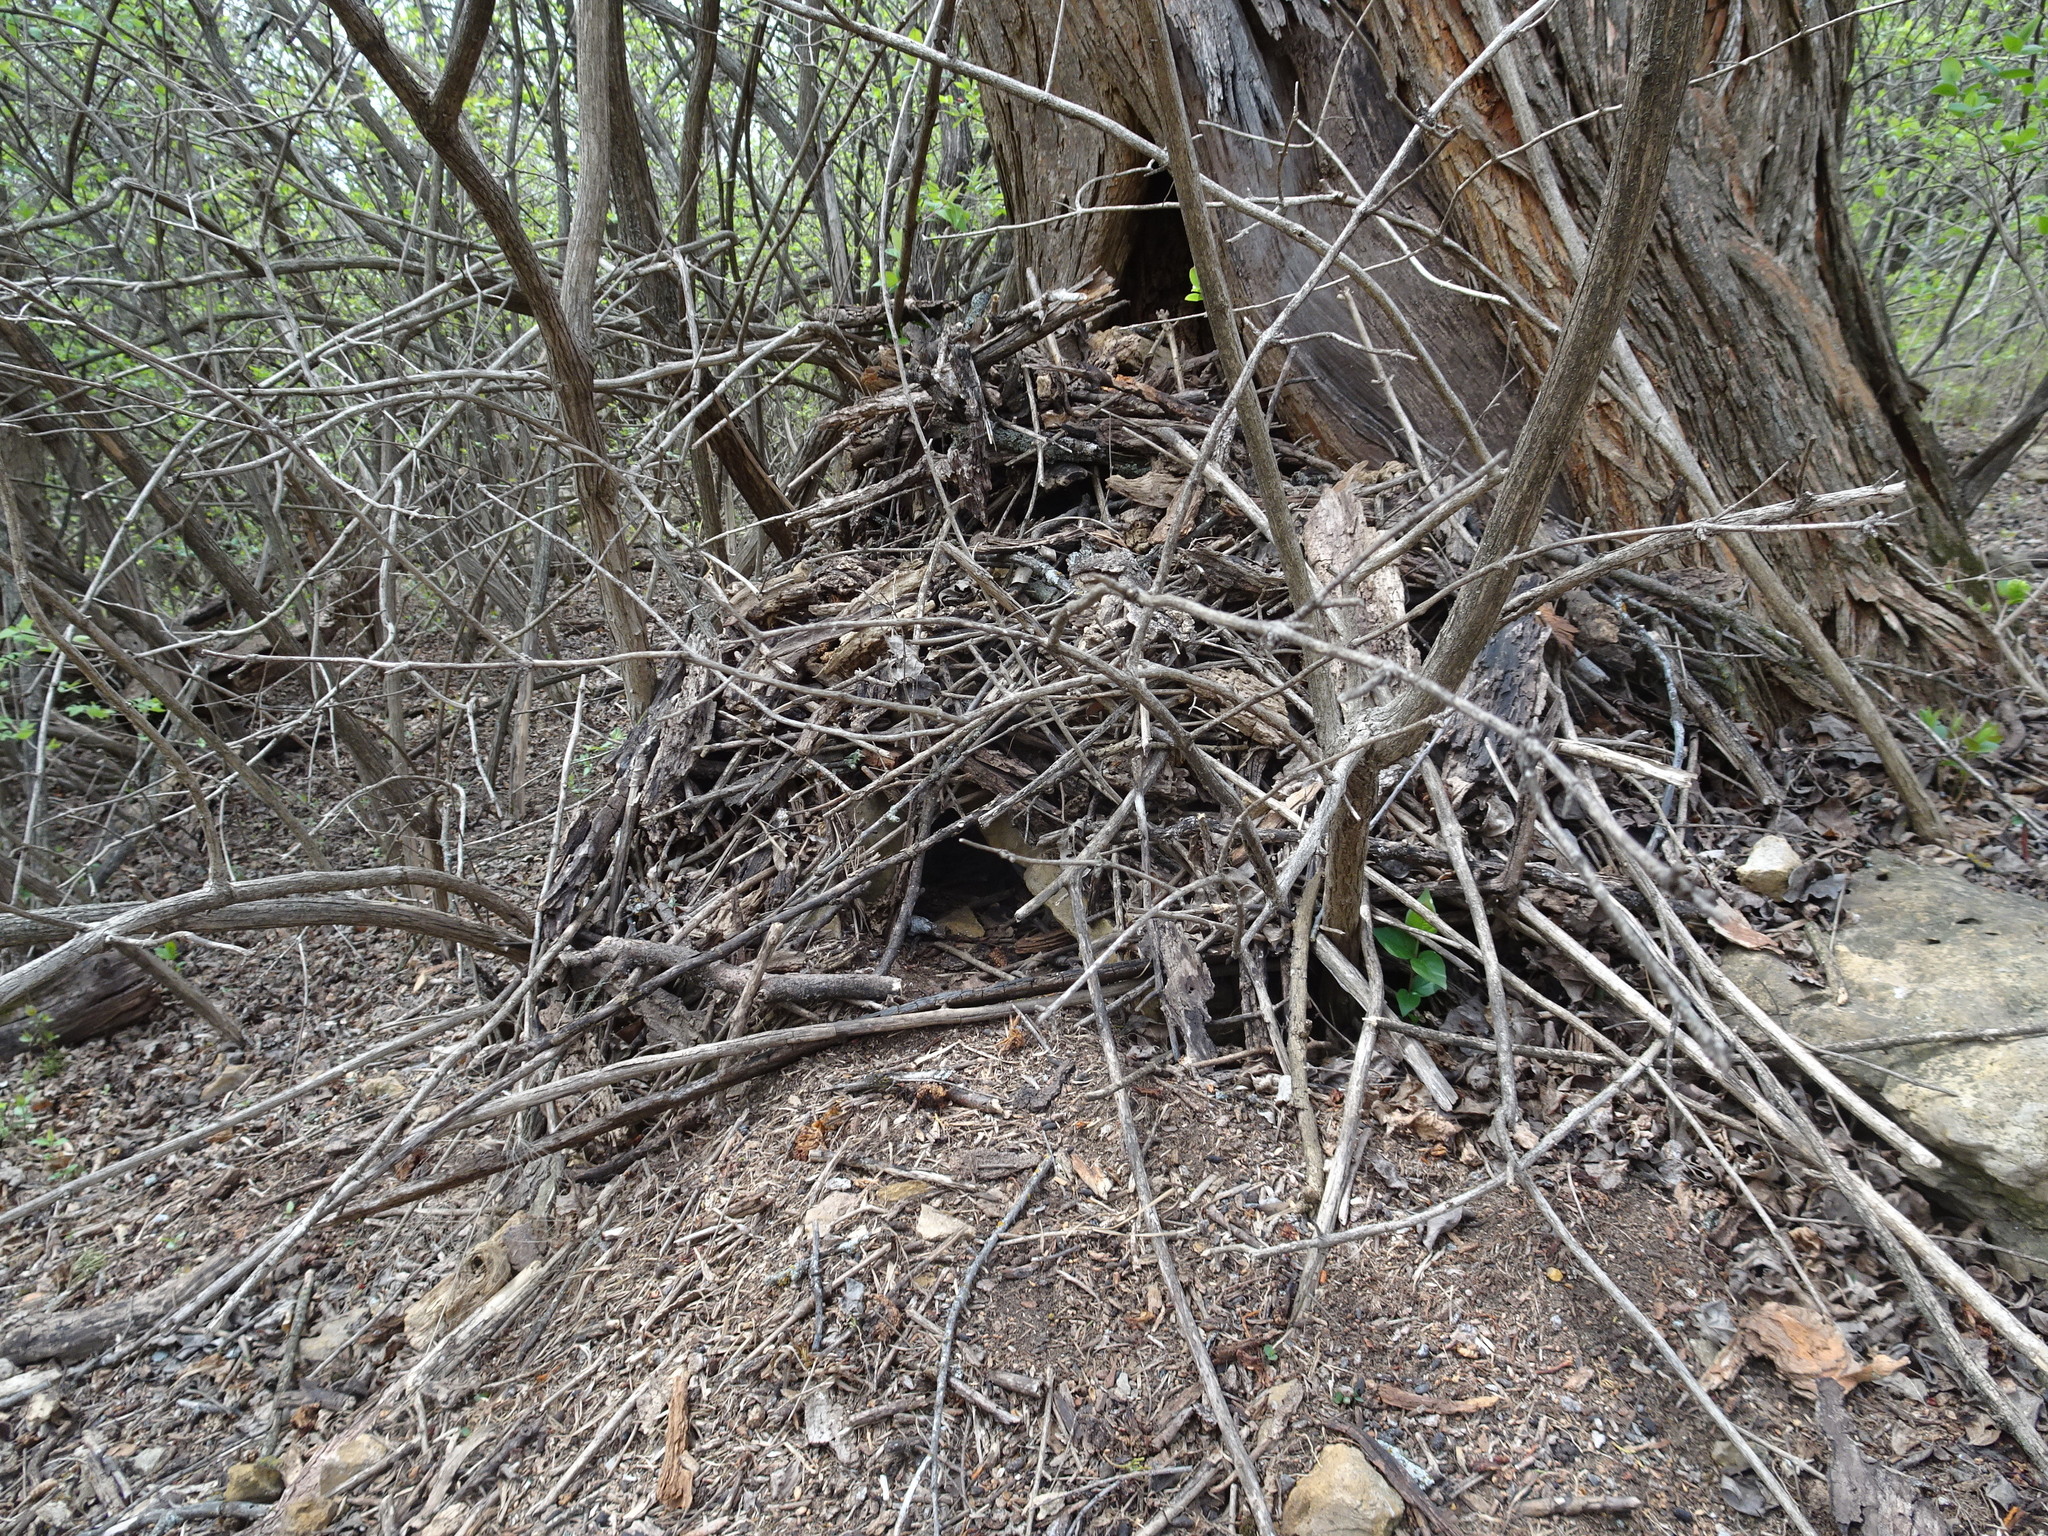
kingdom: Animalia
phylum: Chordata
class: Mammalia
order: Rodentia
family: Cricetidae
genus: Neotoma
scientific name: Neotoma floridana
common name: Eastern woodrat
